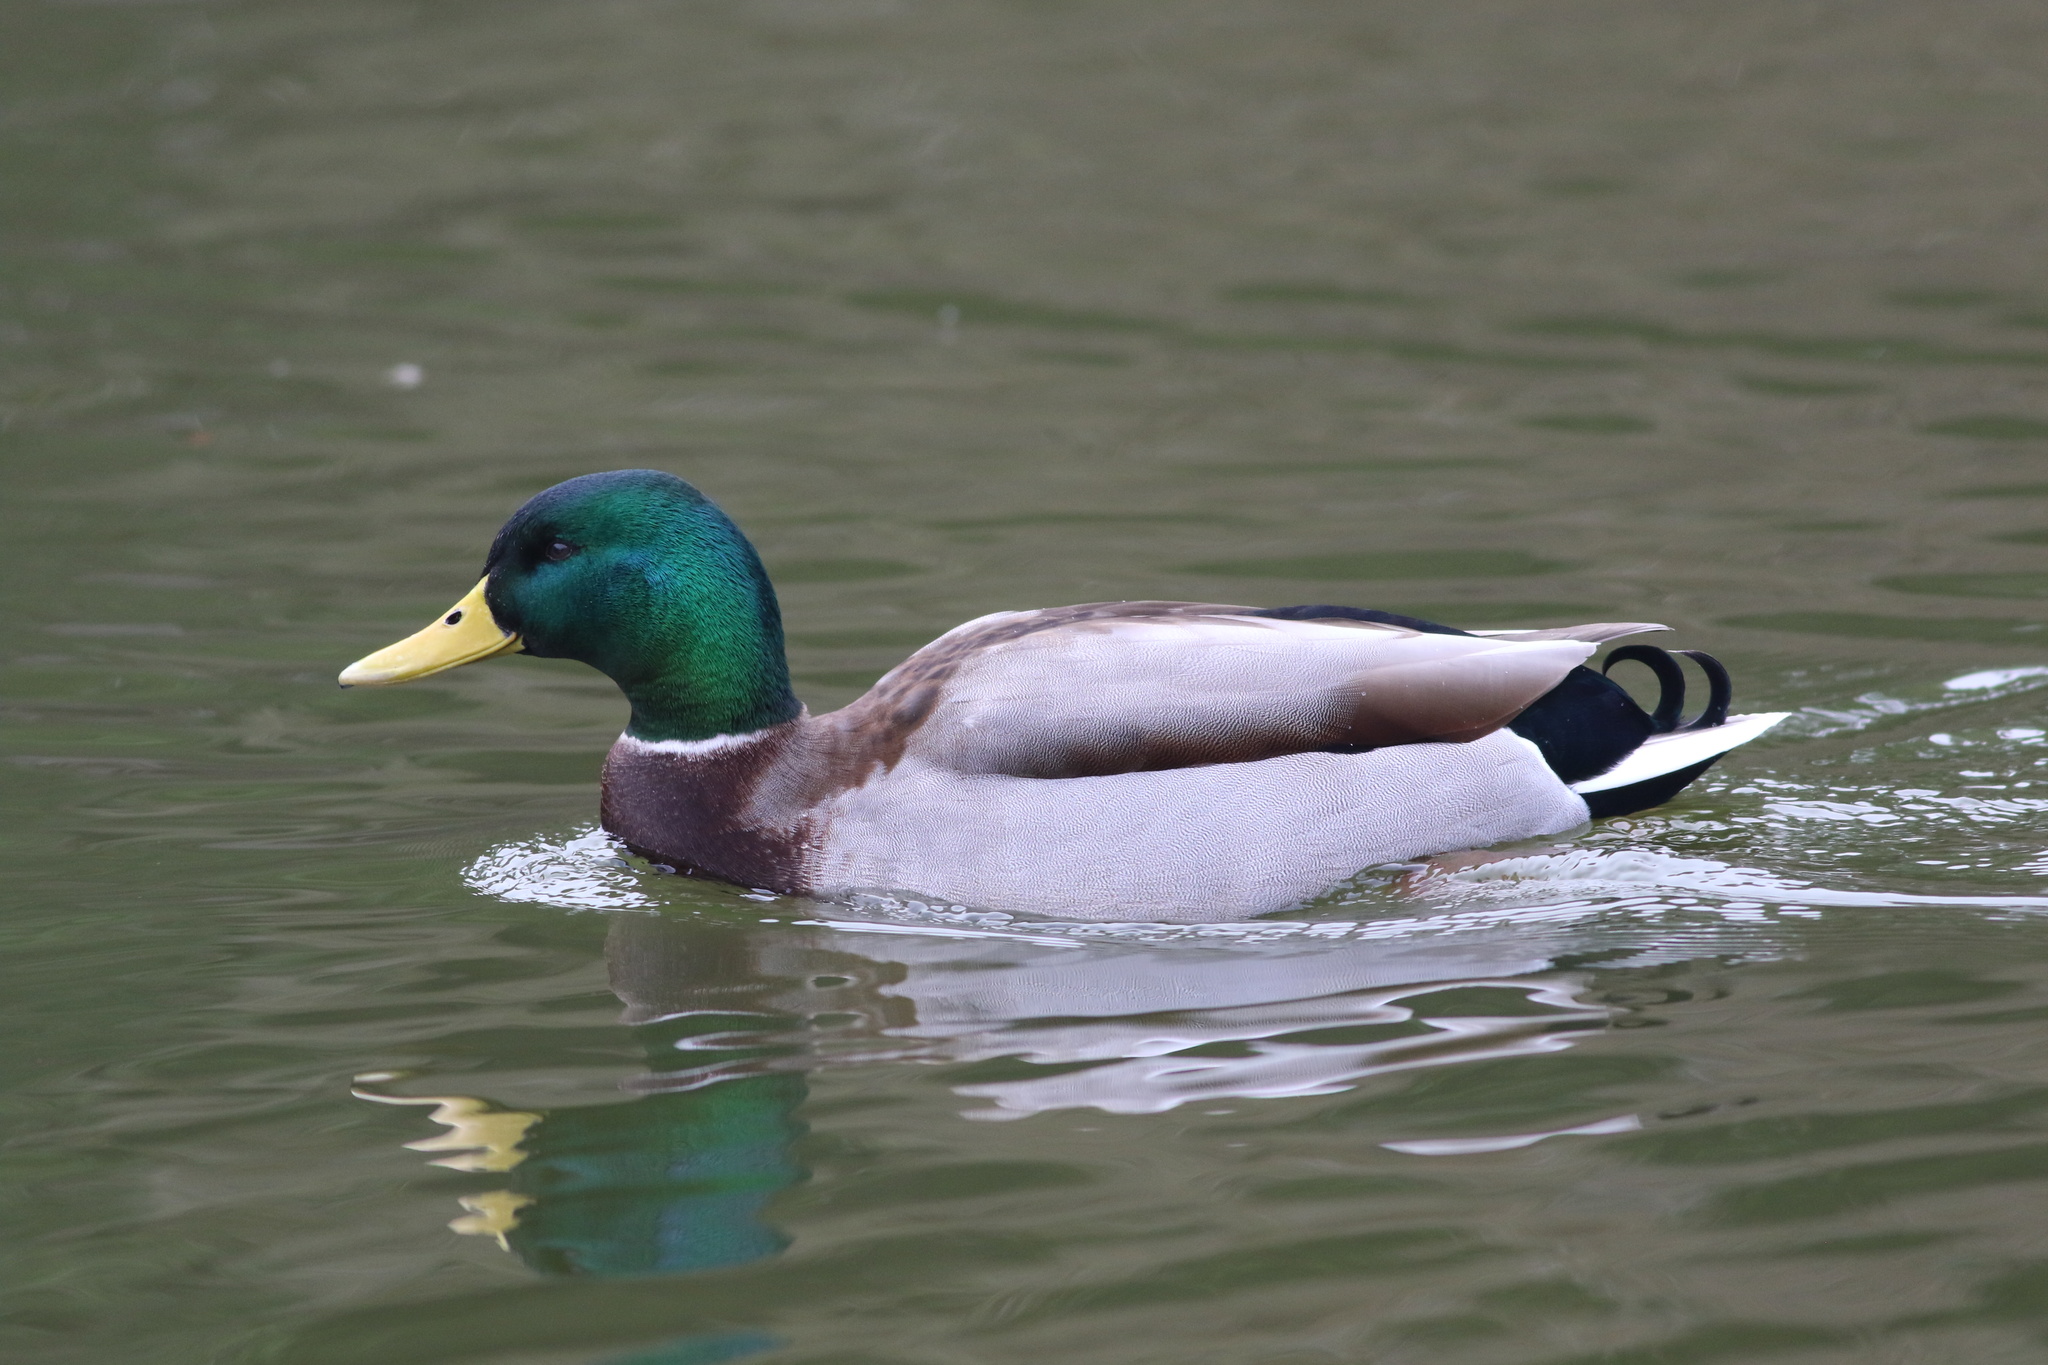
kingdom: Animalia
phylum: Chordata
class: Aves
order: Anseriformes
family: Anatidae
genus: Anas
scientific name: Anas platyrhynchos
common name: Mallard
